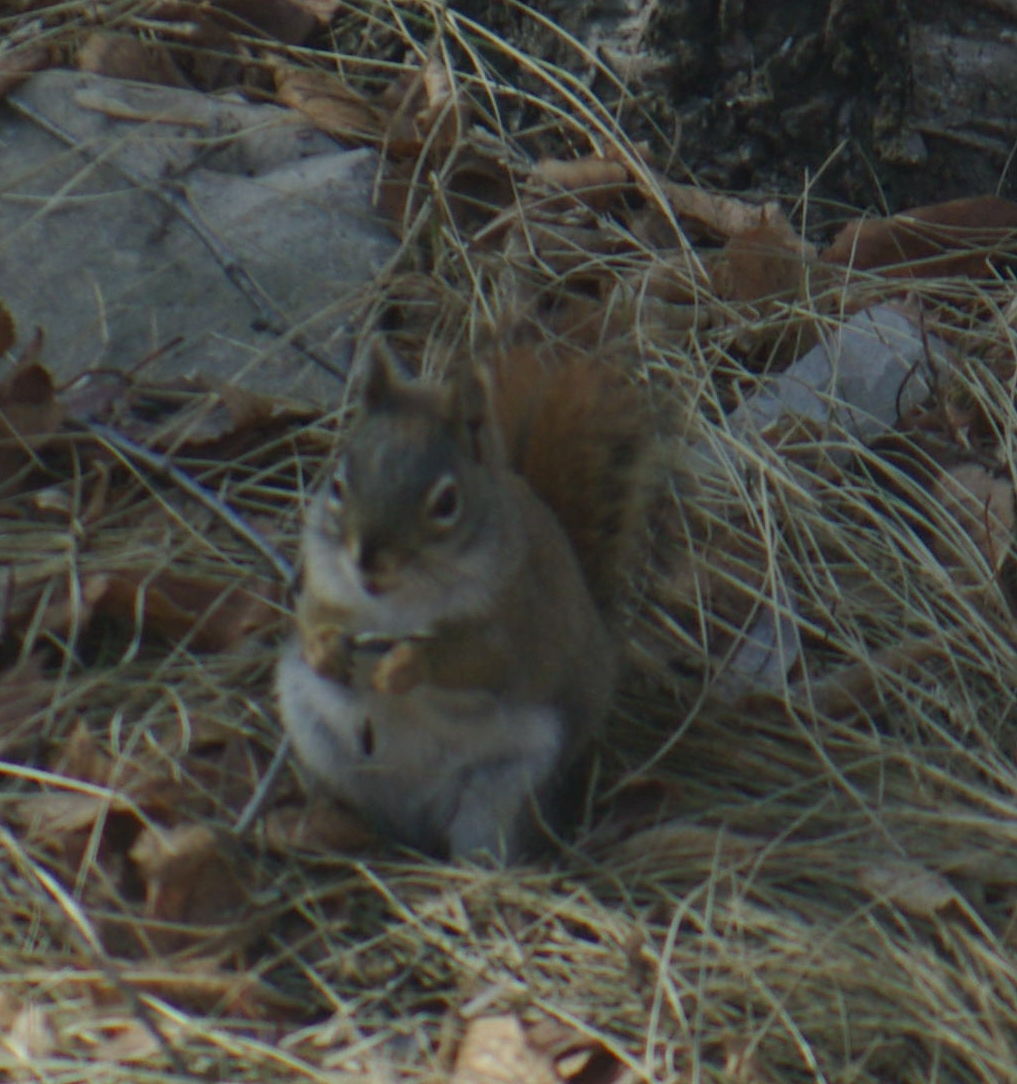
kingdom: Animalia
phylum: Chordata
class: Mammalia
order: Rodentia
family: Sciuridae
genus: Tamiasciurus
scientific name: Tamiasciurus hudsonicus
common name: Red squirrel
